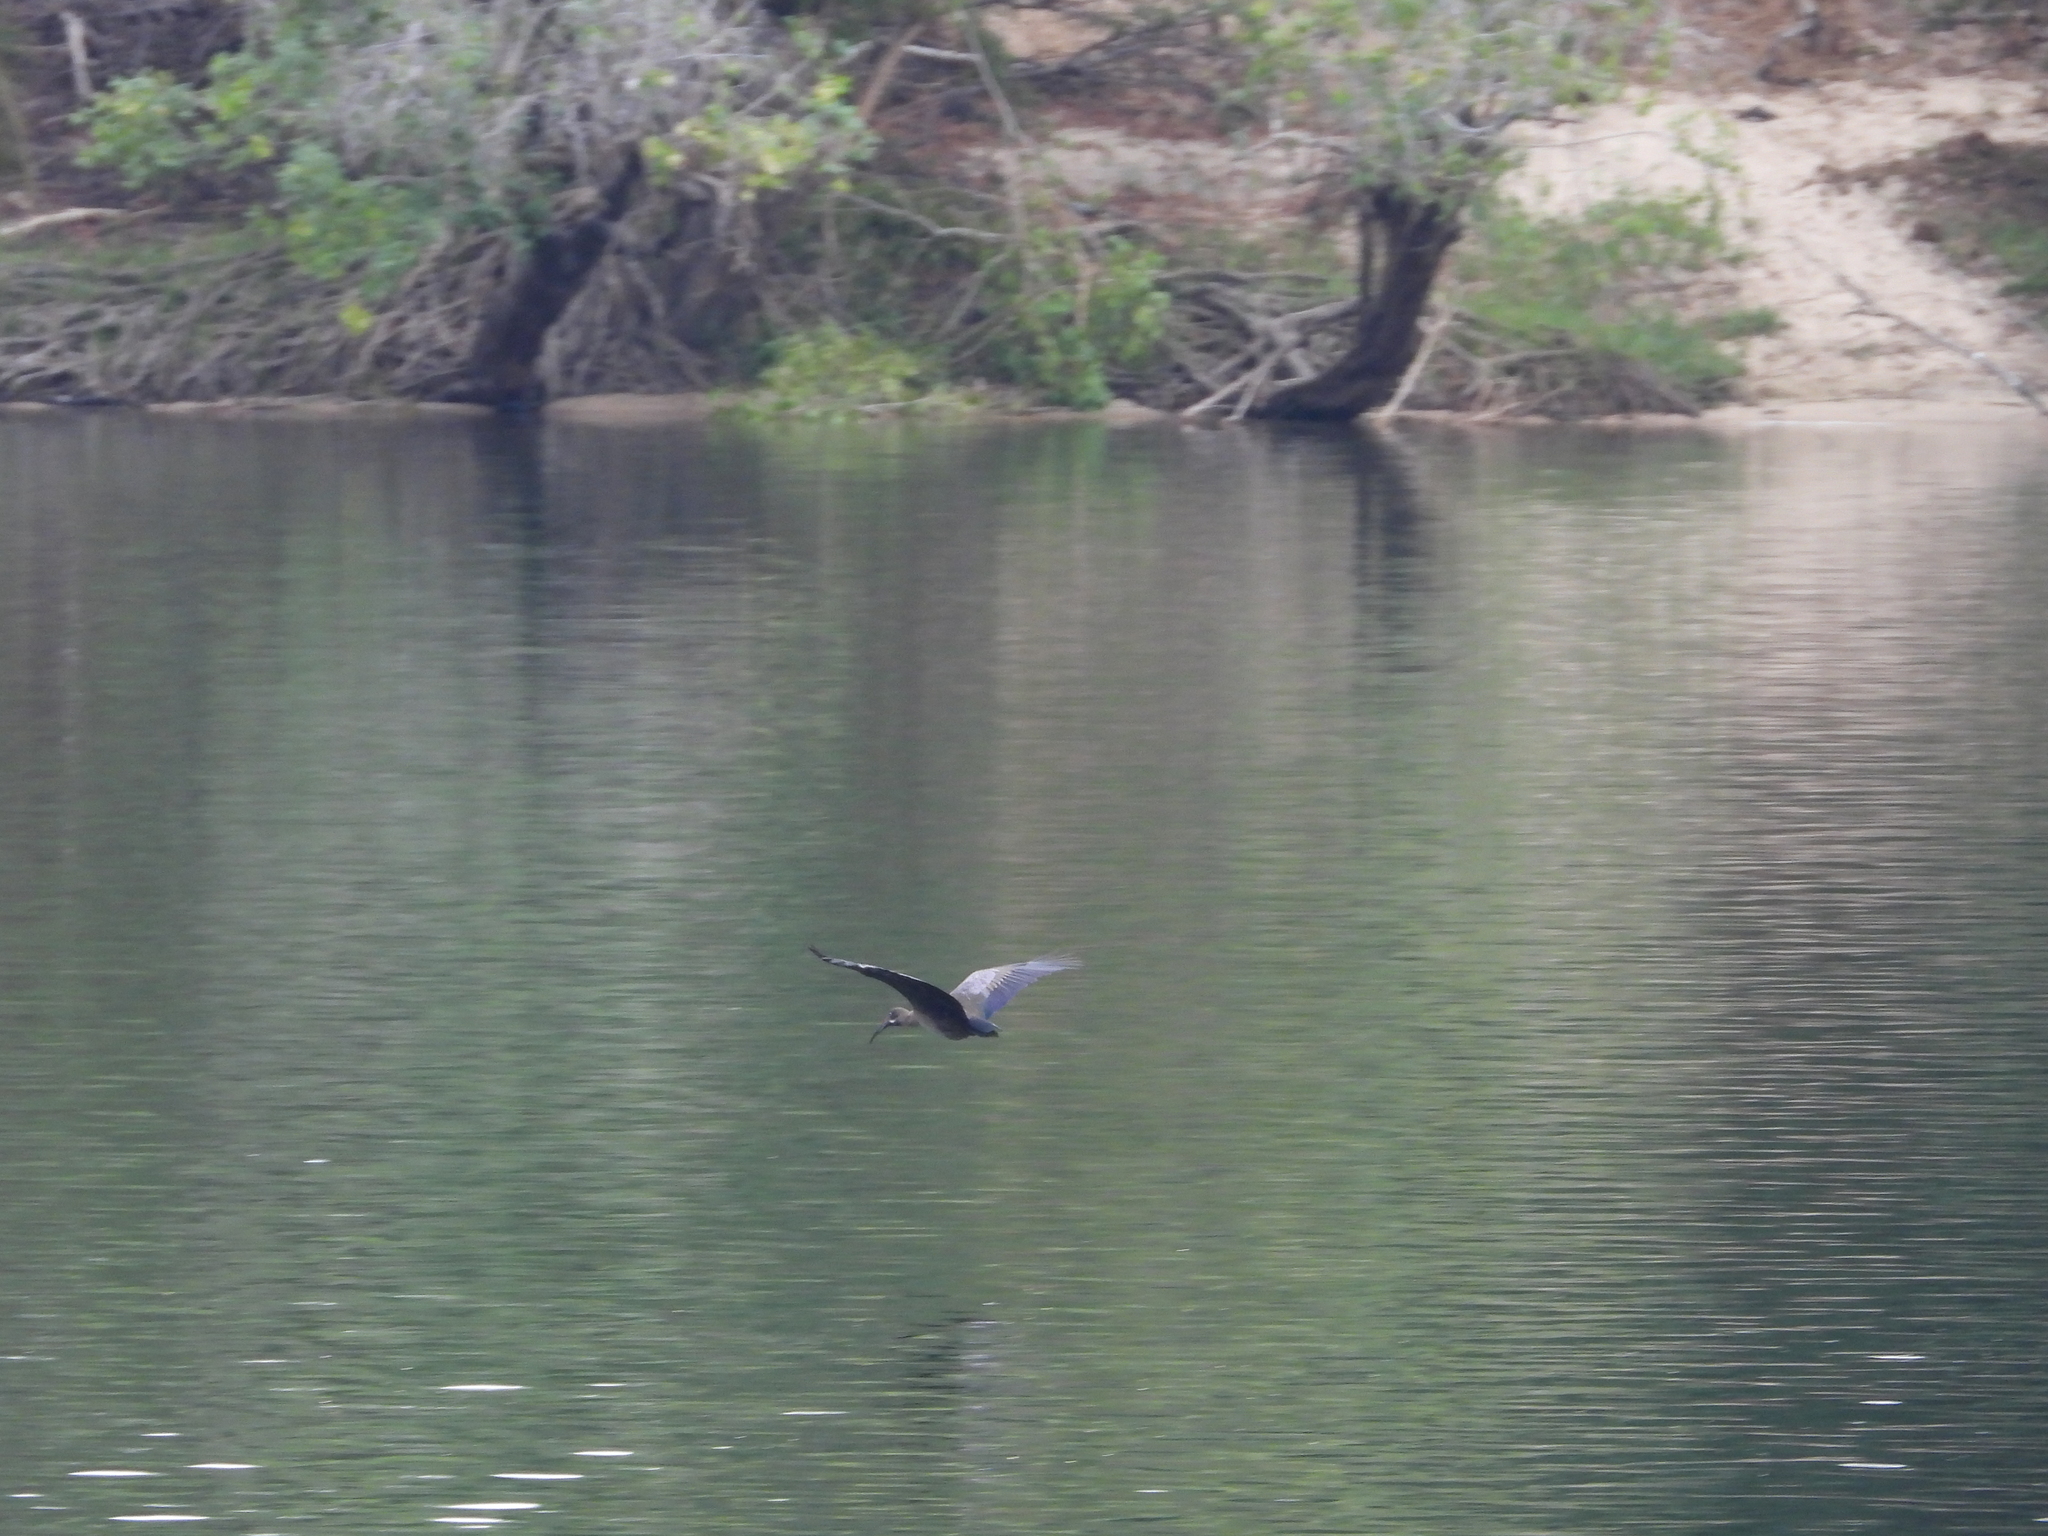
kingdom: Animalia
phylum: Chordata
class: Aves
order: Pelecaniformes
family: Threskiornithidae
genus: Bostrychia
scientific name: Bostrychia hagedash
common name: Hadada ibis
